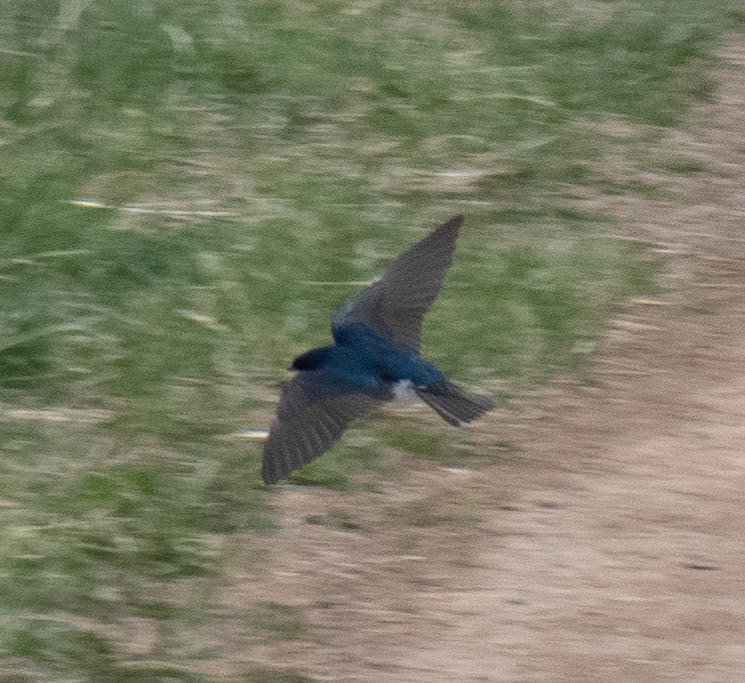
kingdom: Animalia
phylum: Chordata
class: Aves
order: Passeriformes
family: Hirundinidae
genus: Tachycineta
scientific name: Tachycineta bicolor
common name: Tree swallow
